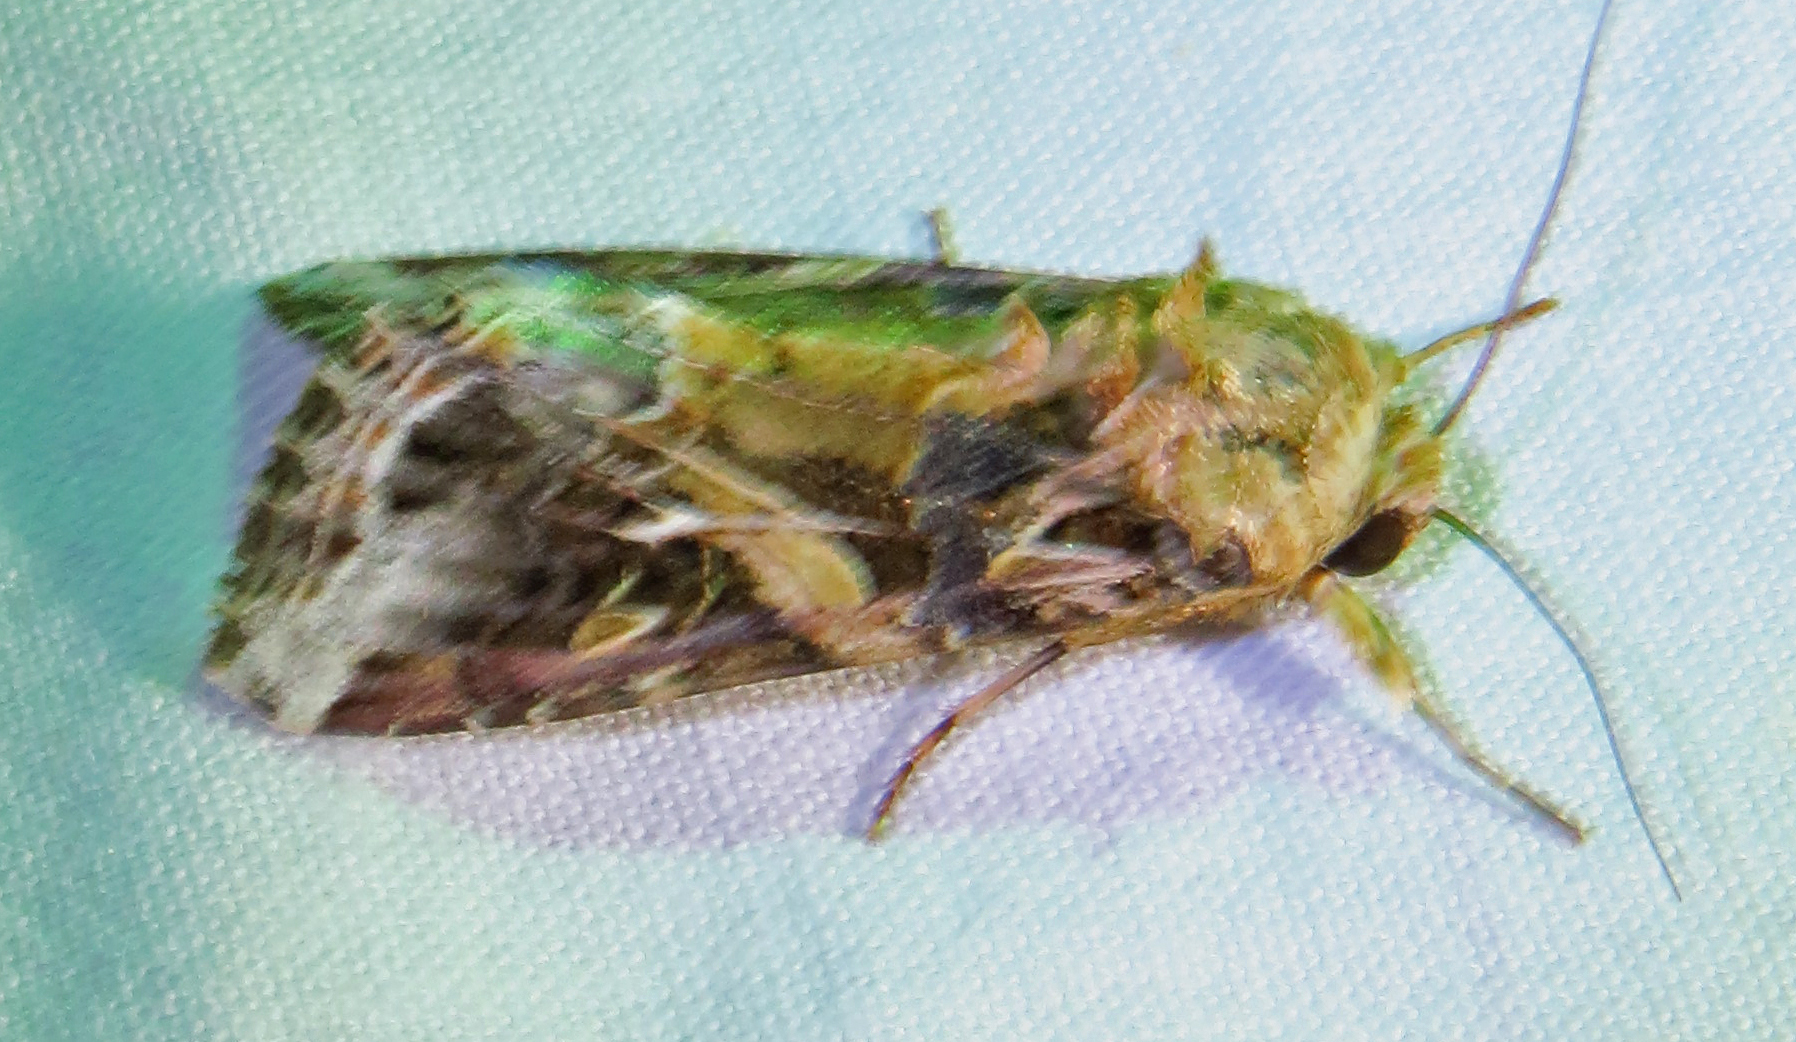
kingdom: Animalia
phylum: Arthropoda
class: Insecta
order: Lepidoptera
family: Noctuidae
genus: Spodoptera
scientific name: Spodoptera ornithogalli
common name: Yellow-striped armyworm
